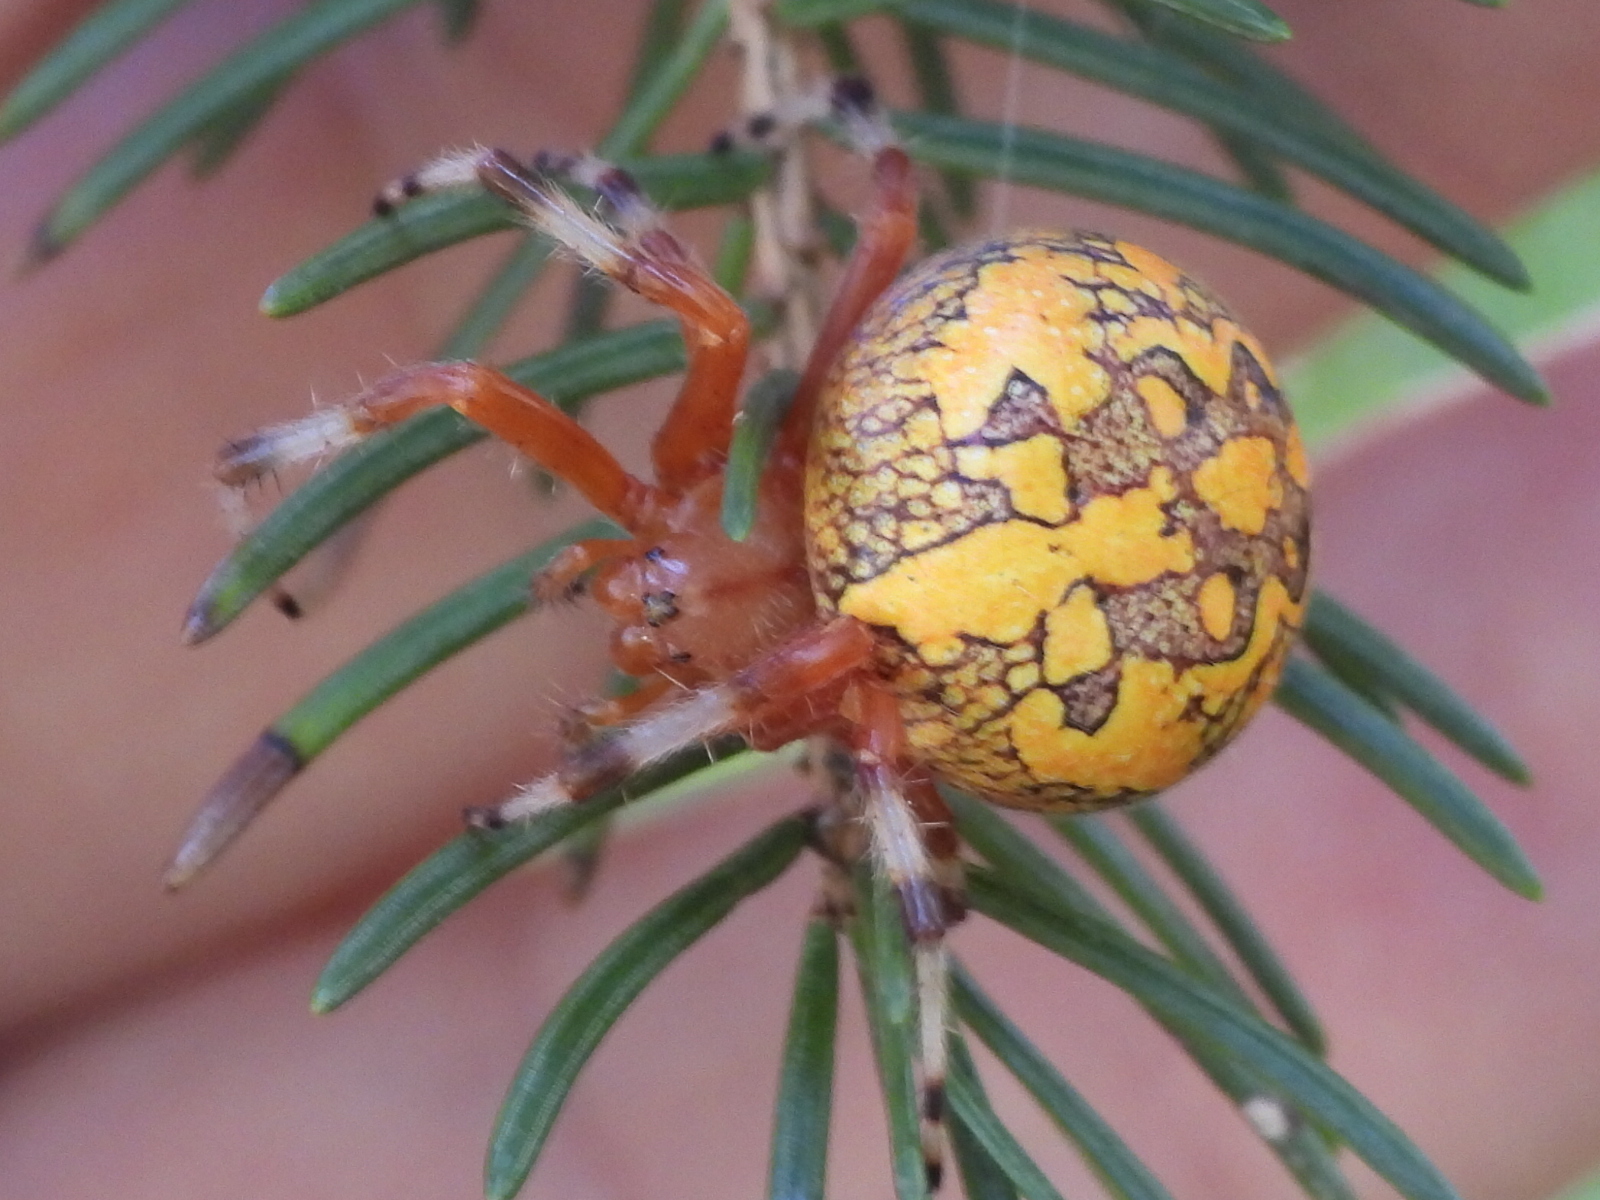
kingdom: Animalia
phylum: Arthropoda
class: Arachnida
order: Araneae
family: Araneidae
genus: Araneus
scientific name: Araneus marmoreus
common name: Marbled orbweaver
